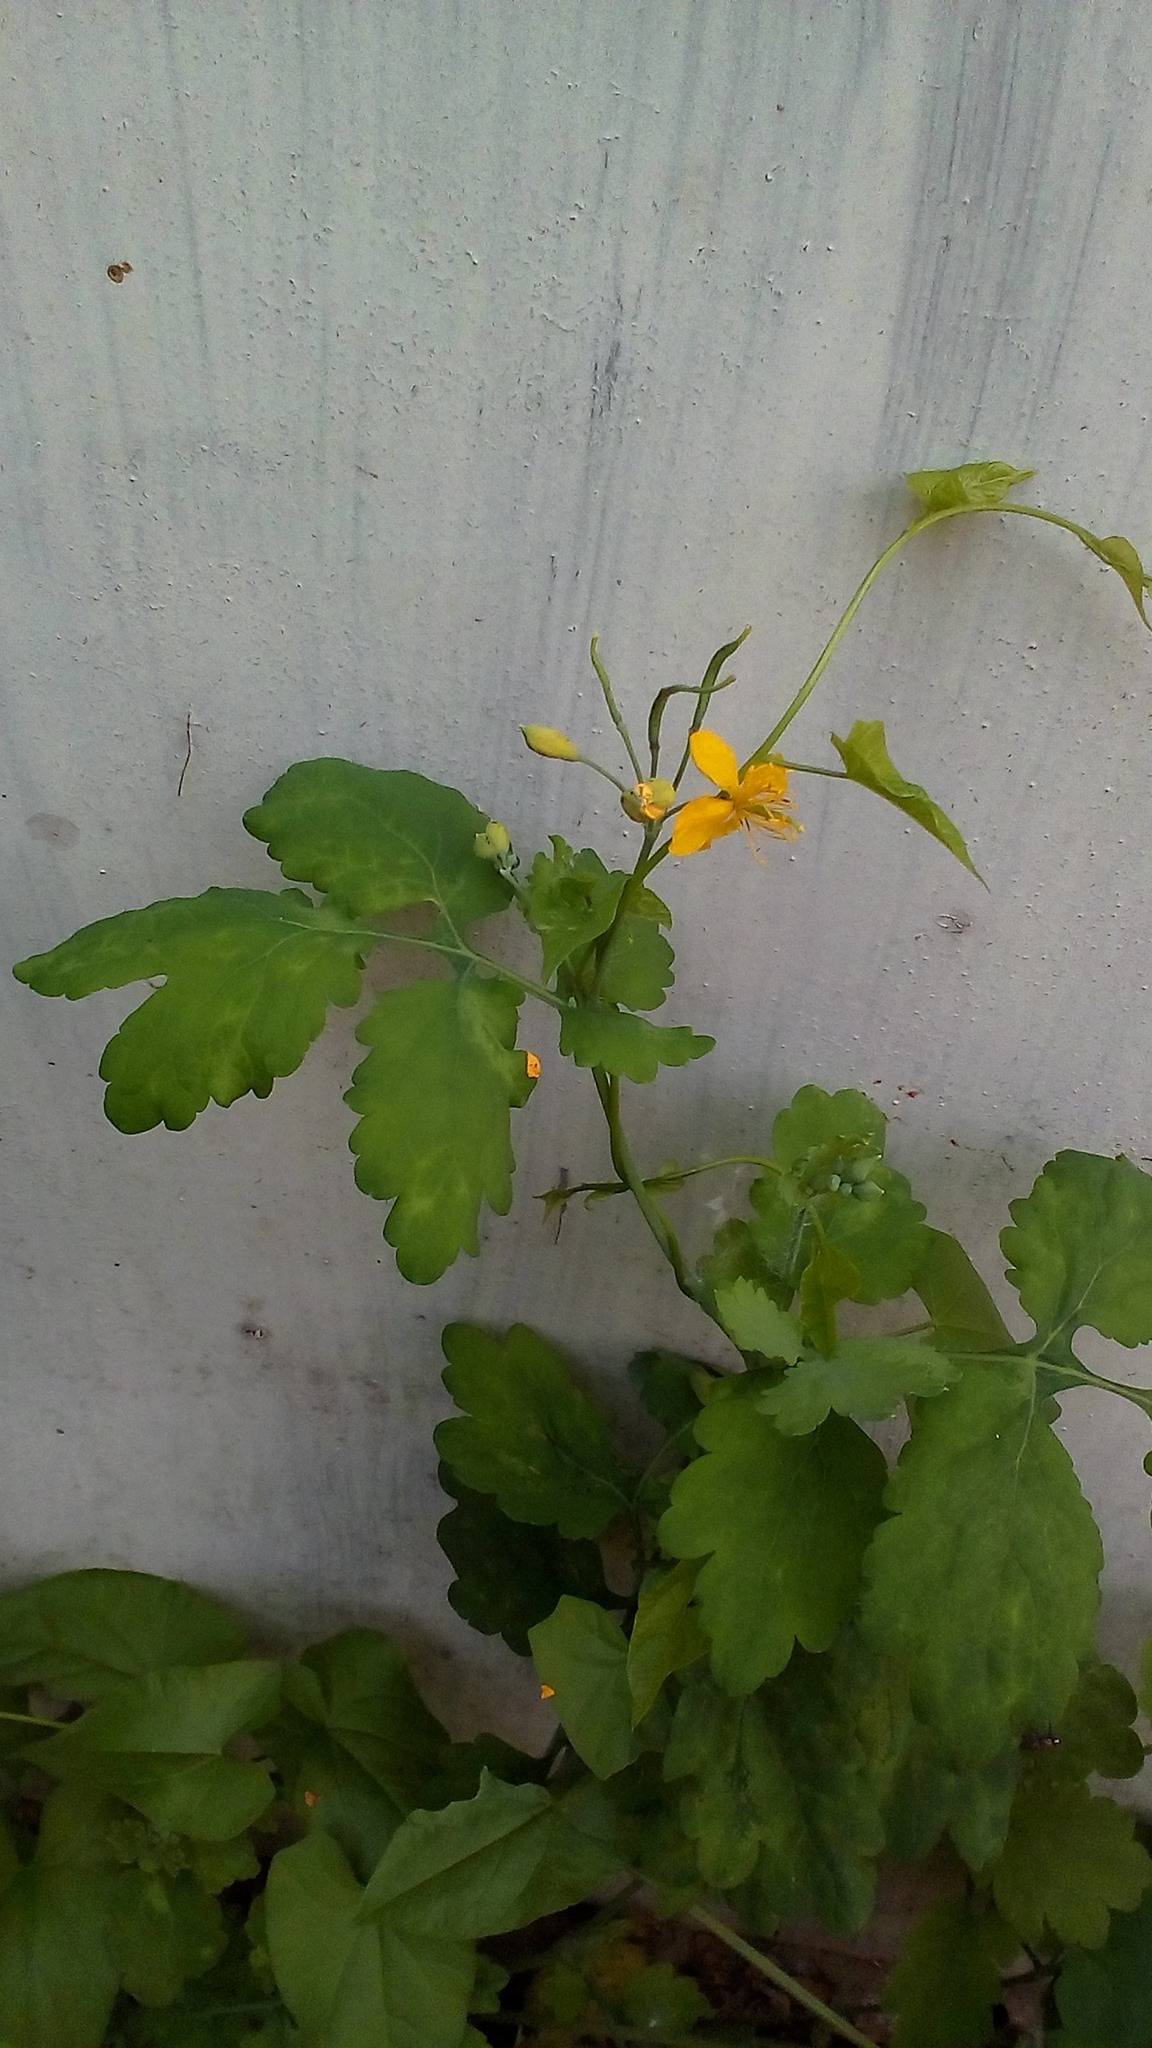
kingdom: Plantae
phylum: Tracheophyta
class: Magnoliopsida
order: Ranunculales
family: Papaveraceae
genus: Chelidonium
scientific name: Chelidonium majus
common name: Greater celandine
